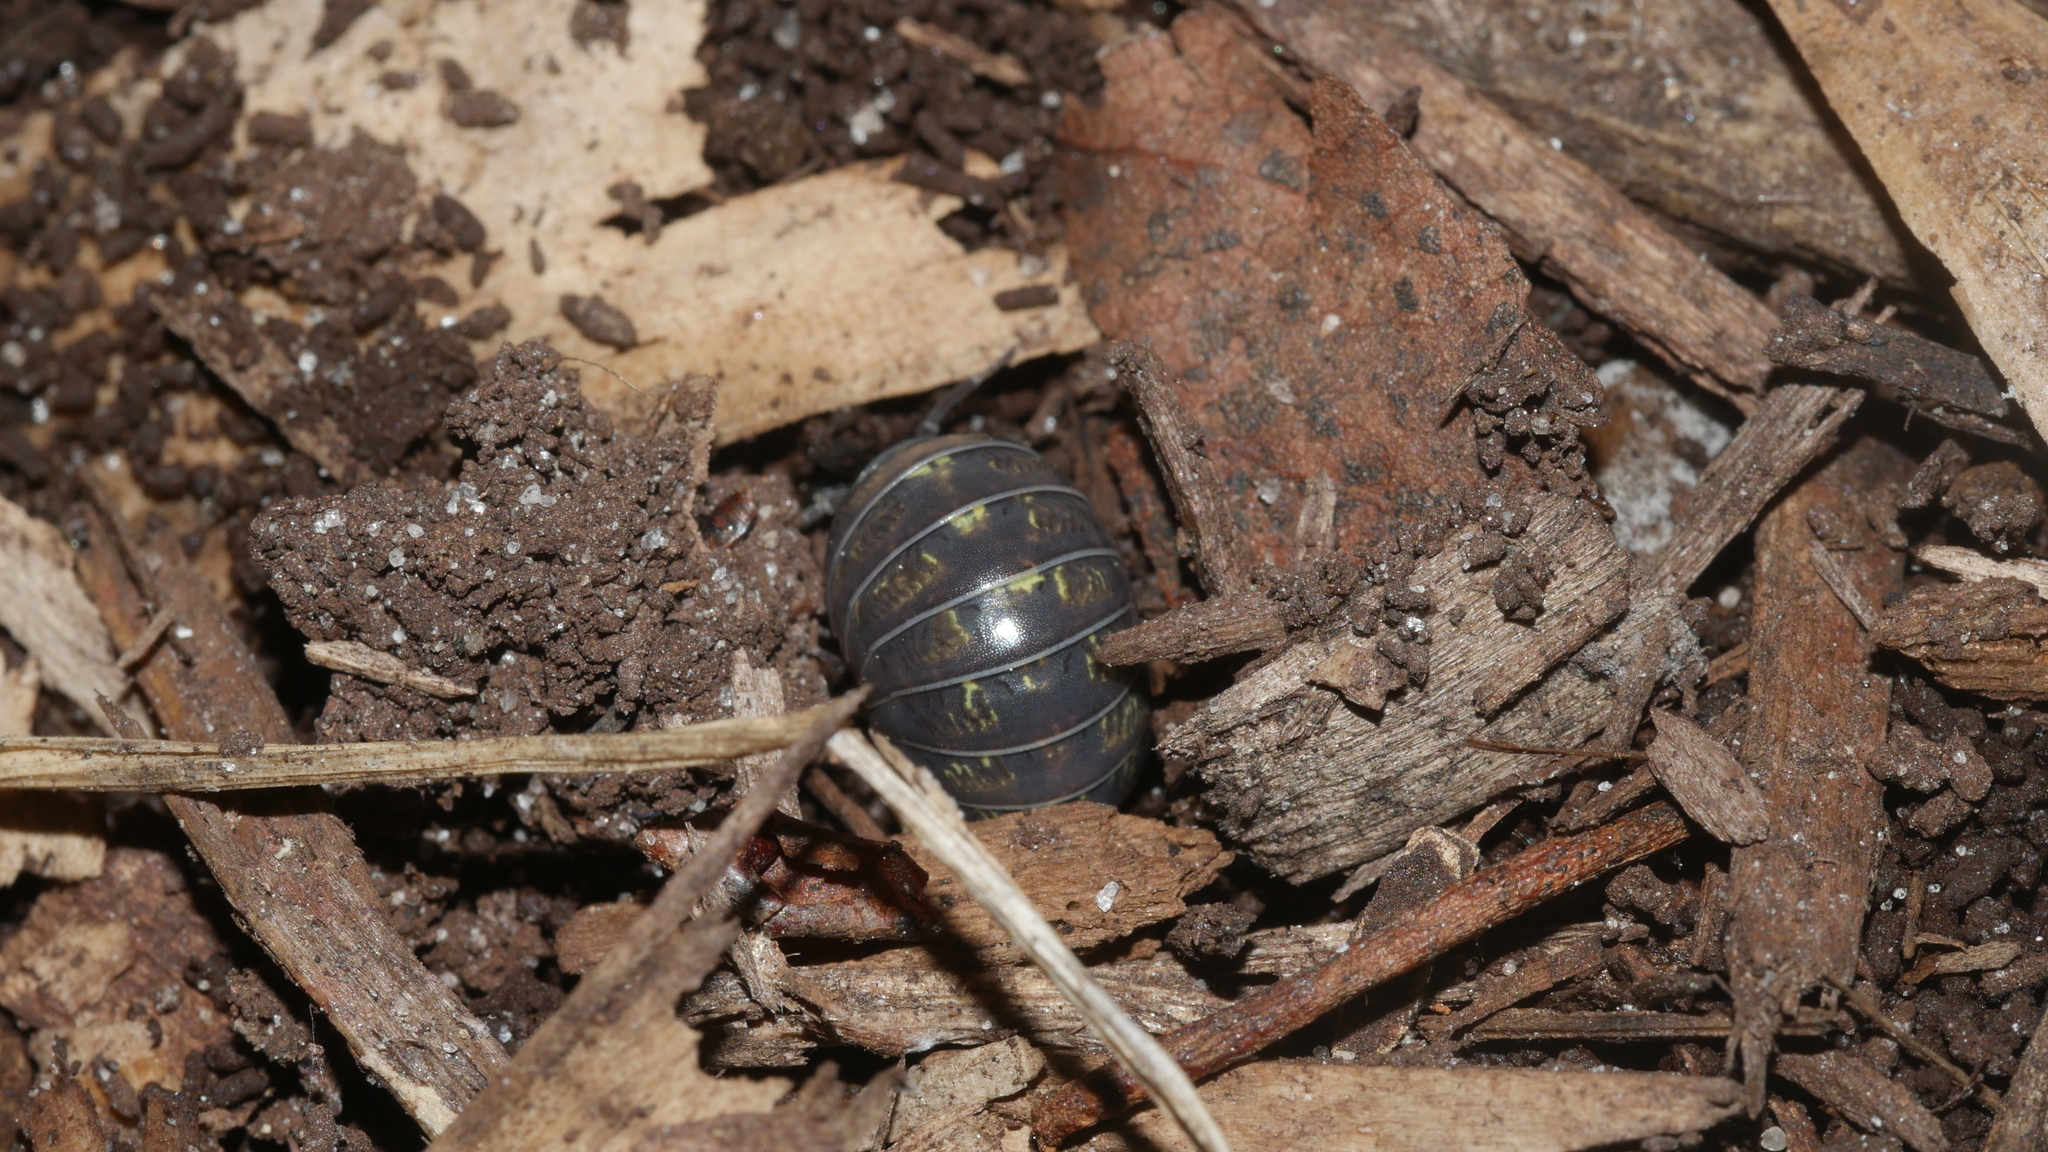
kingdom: Animalia
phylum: Arthropoda
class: Malacostraca
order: Isopoda
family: Armadillidiidae
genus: Armadillidium
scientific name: Armadillidium vulgare
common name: Common pill woodlouse
